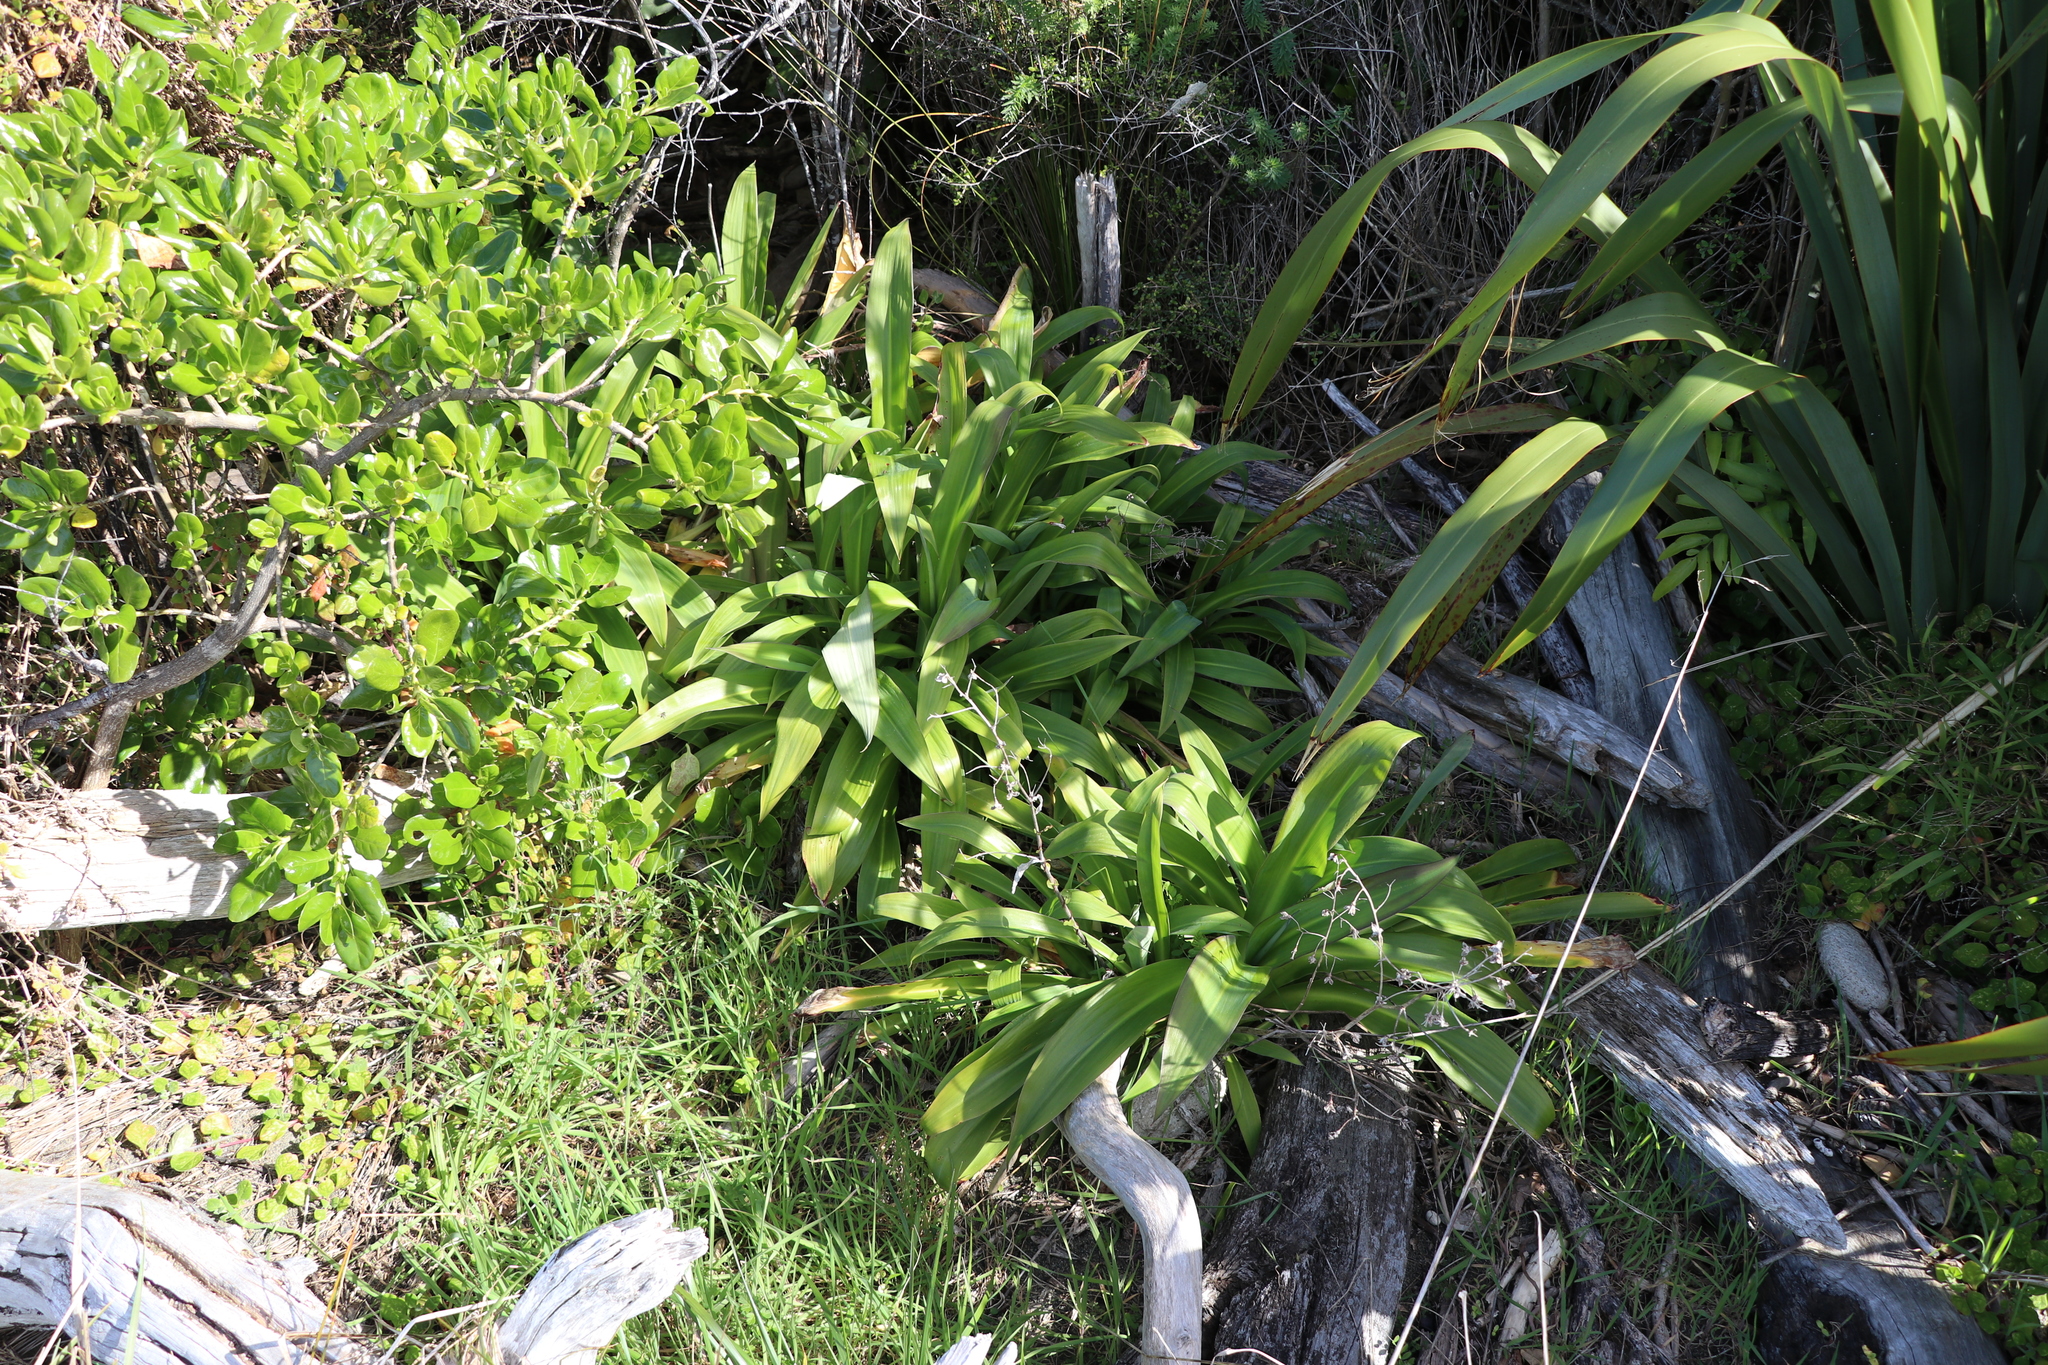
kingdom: Plantae
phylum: Tracheophyta
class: Liliopsida
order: Asparagales
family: Asparagaceae
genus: Arthropodium
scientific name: Arthropodium cirratum
